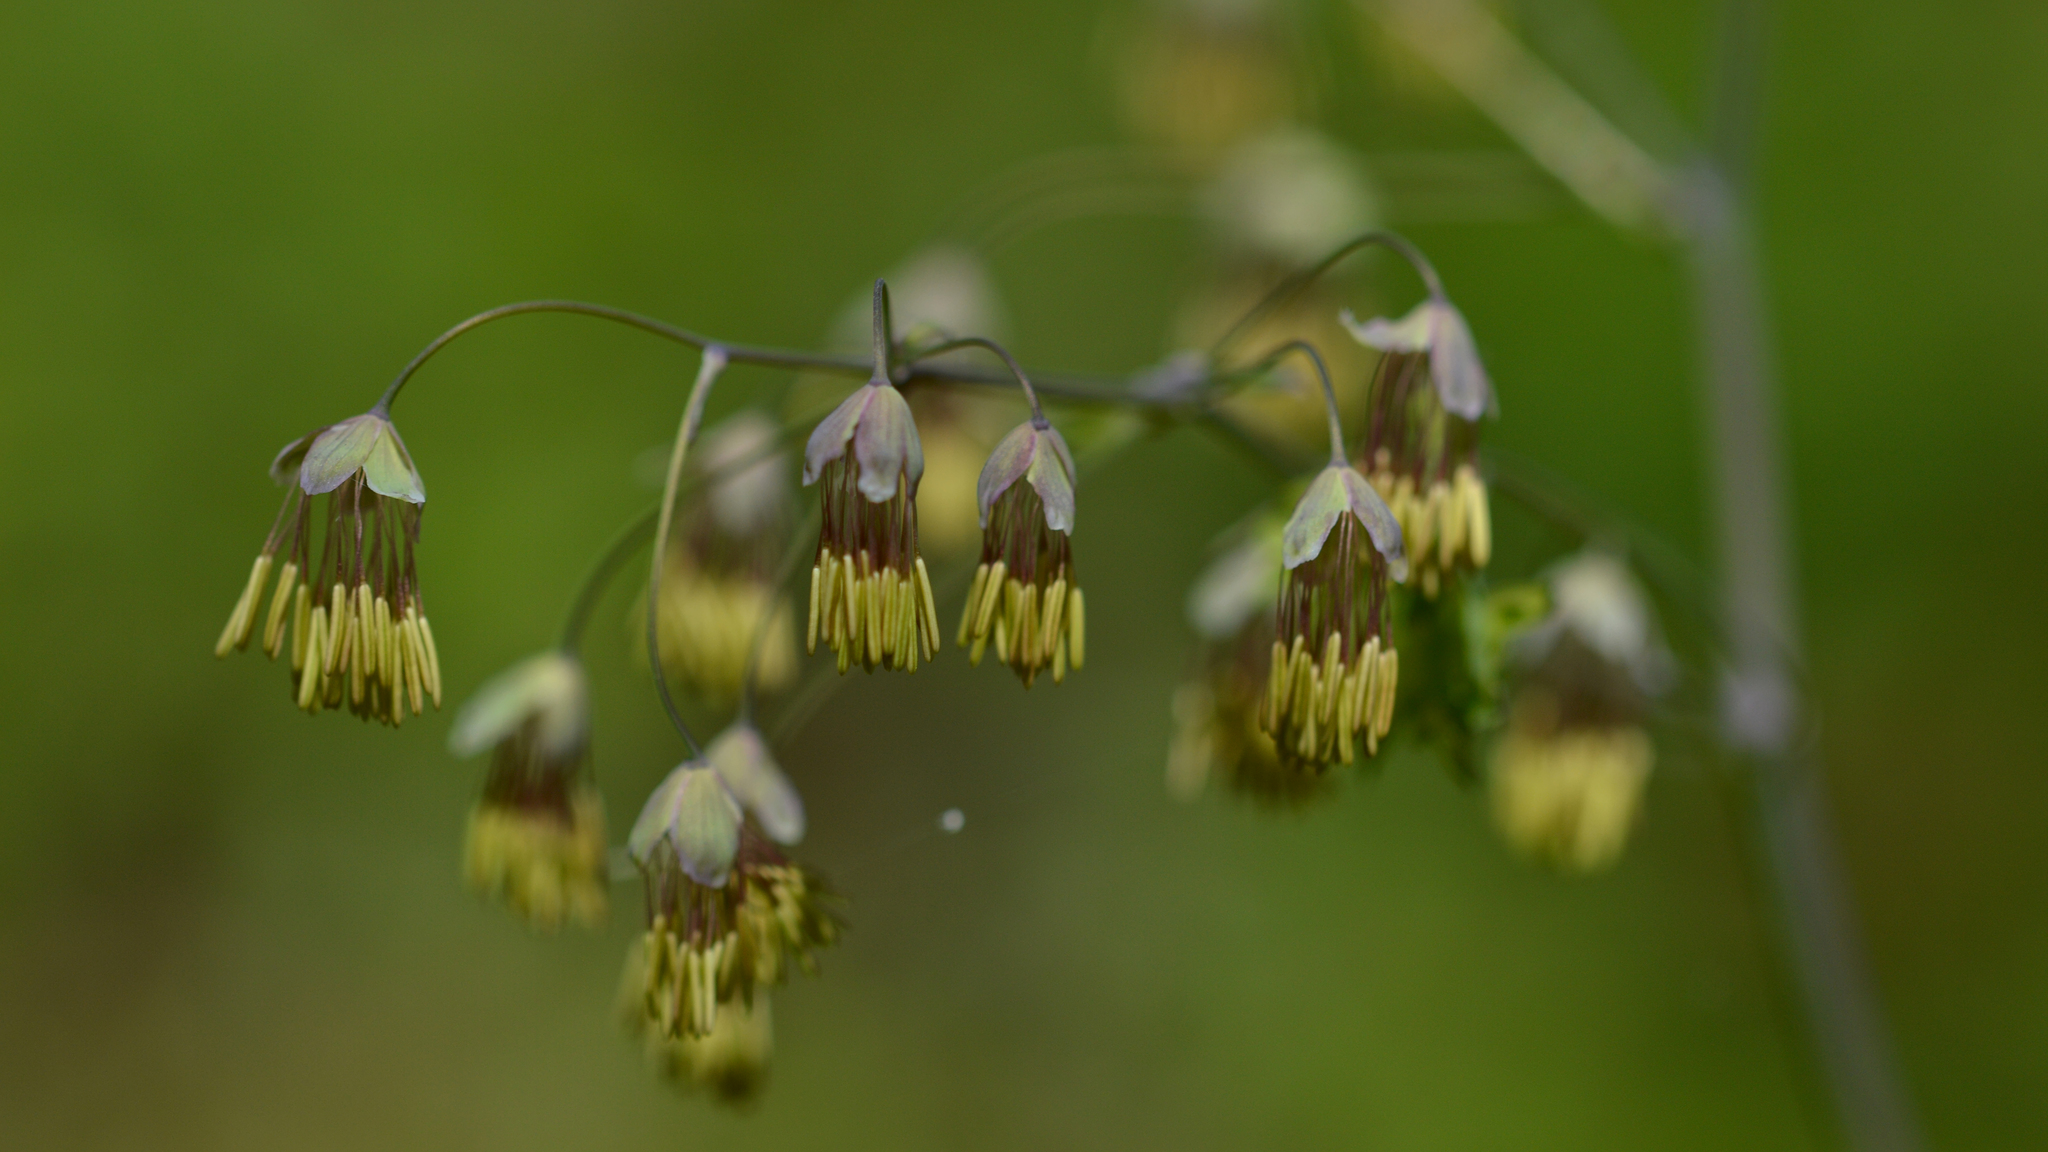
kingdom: Plantae
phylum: Tracheophyta
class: Magnoliopsida
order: Ranunculales
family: Ranunculaceae
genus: Thalictrum
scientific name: Thalictrum dioicum
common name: Early meadow-rue
